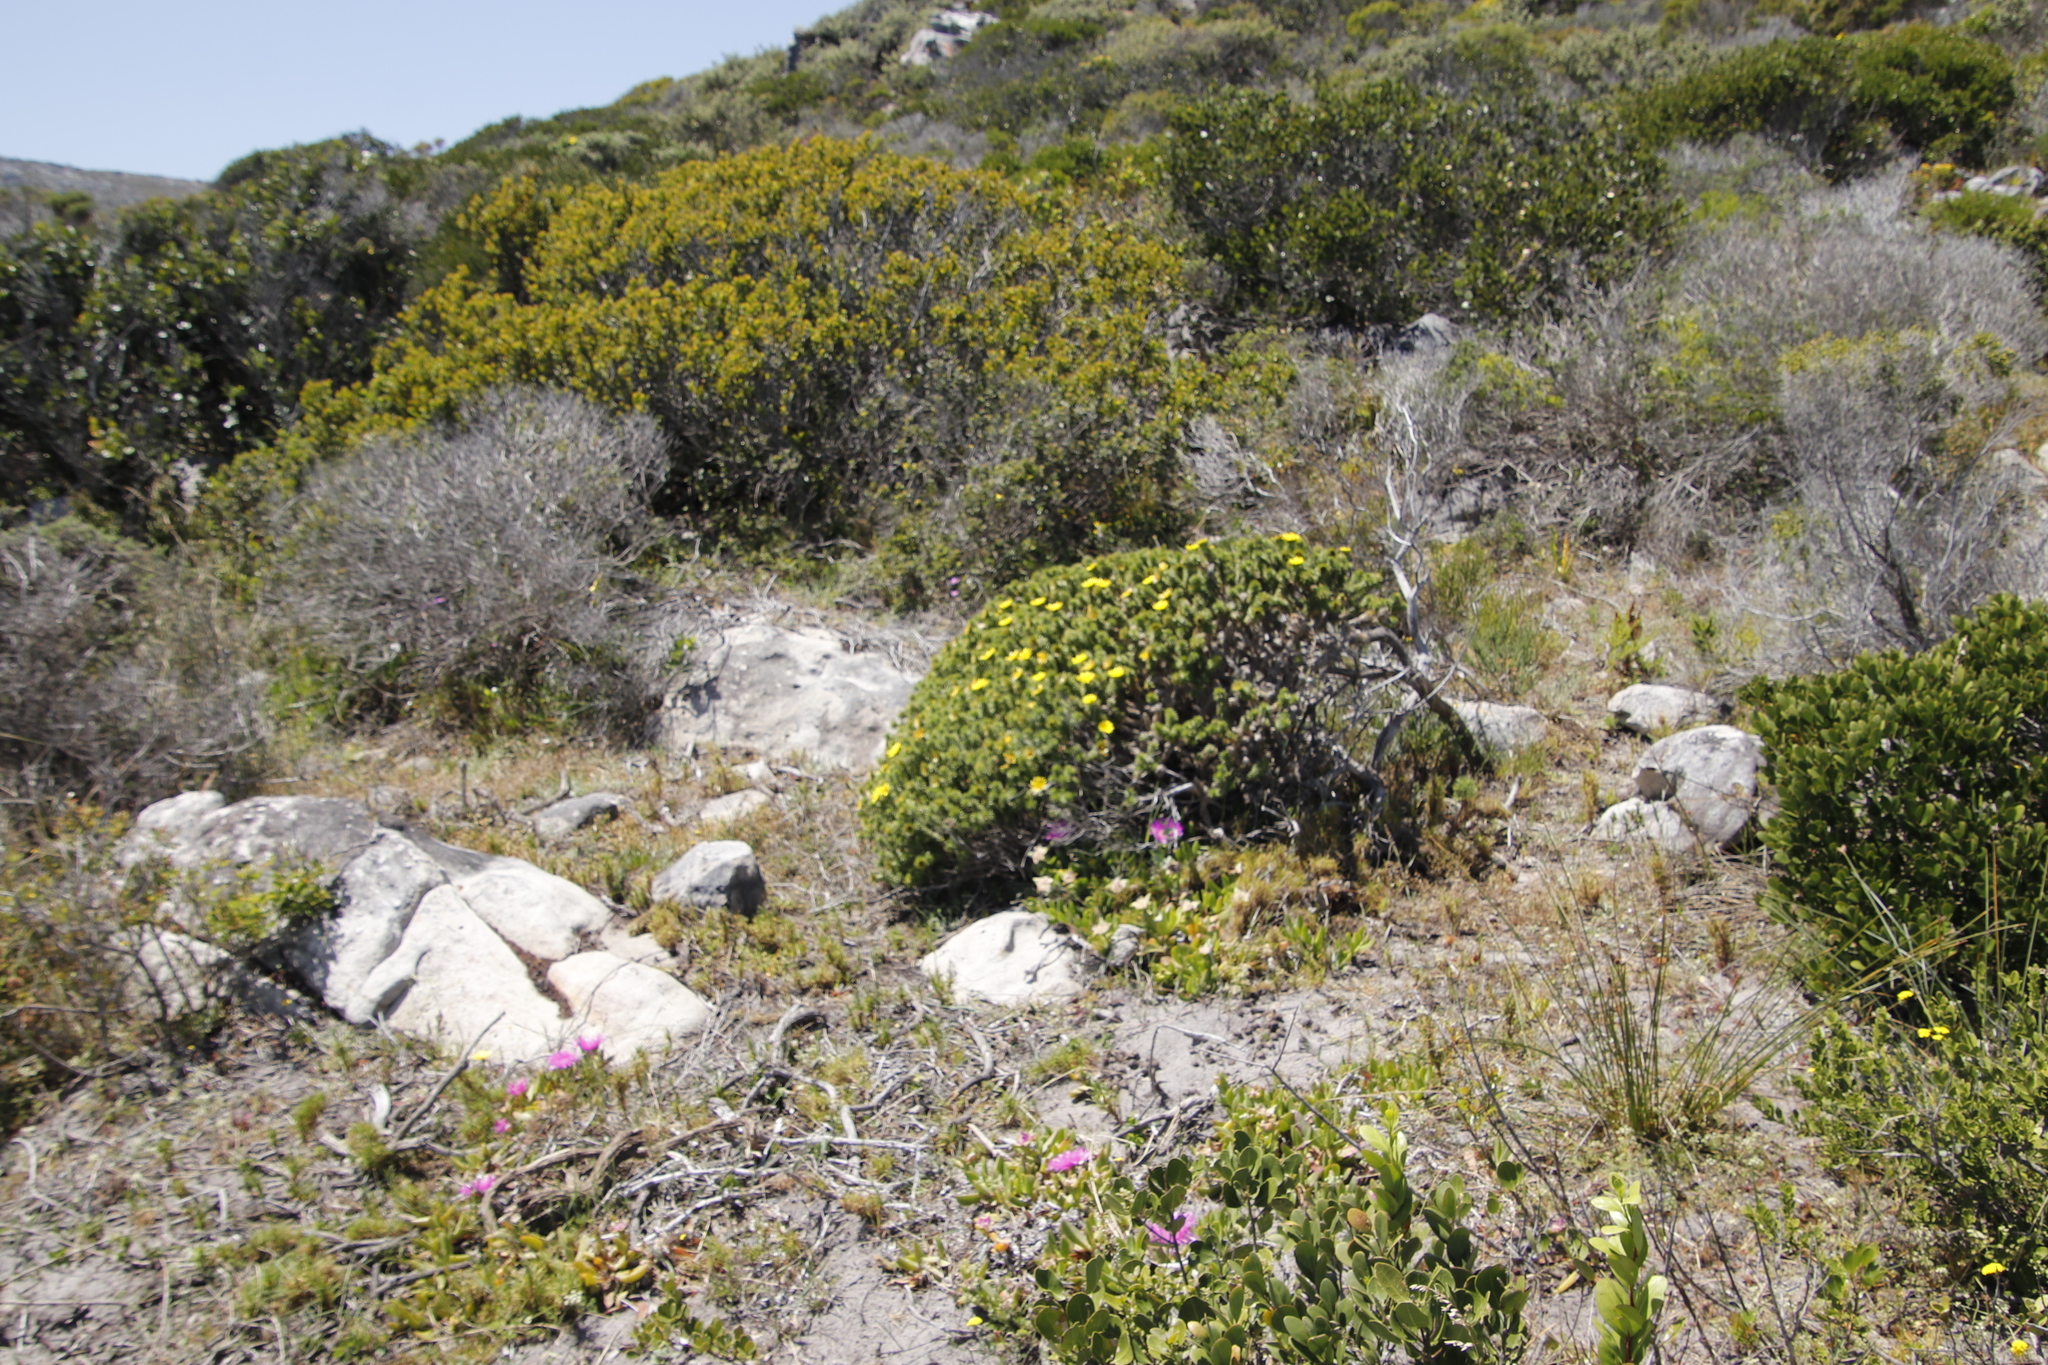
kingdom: Plantae
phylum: Tracheophyta
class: Magnoliopsida
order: Asterales
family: Asteraceae
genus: Cullumia
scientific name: Cullumia squarrosa
